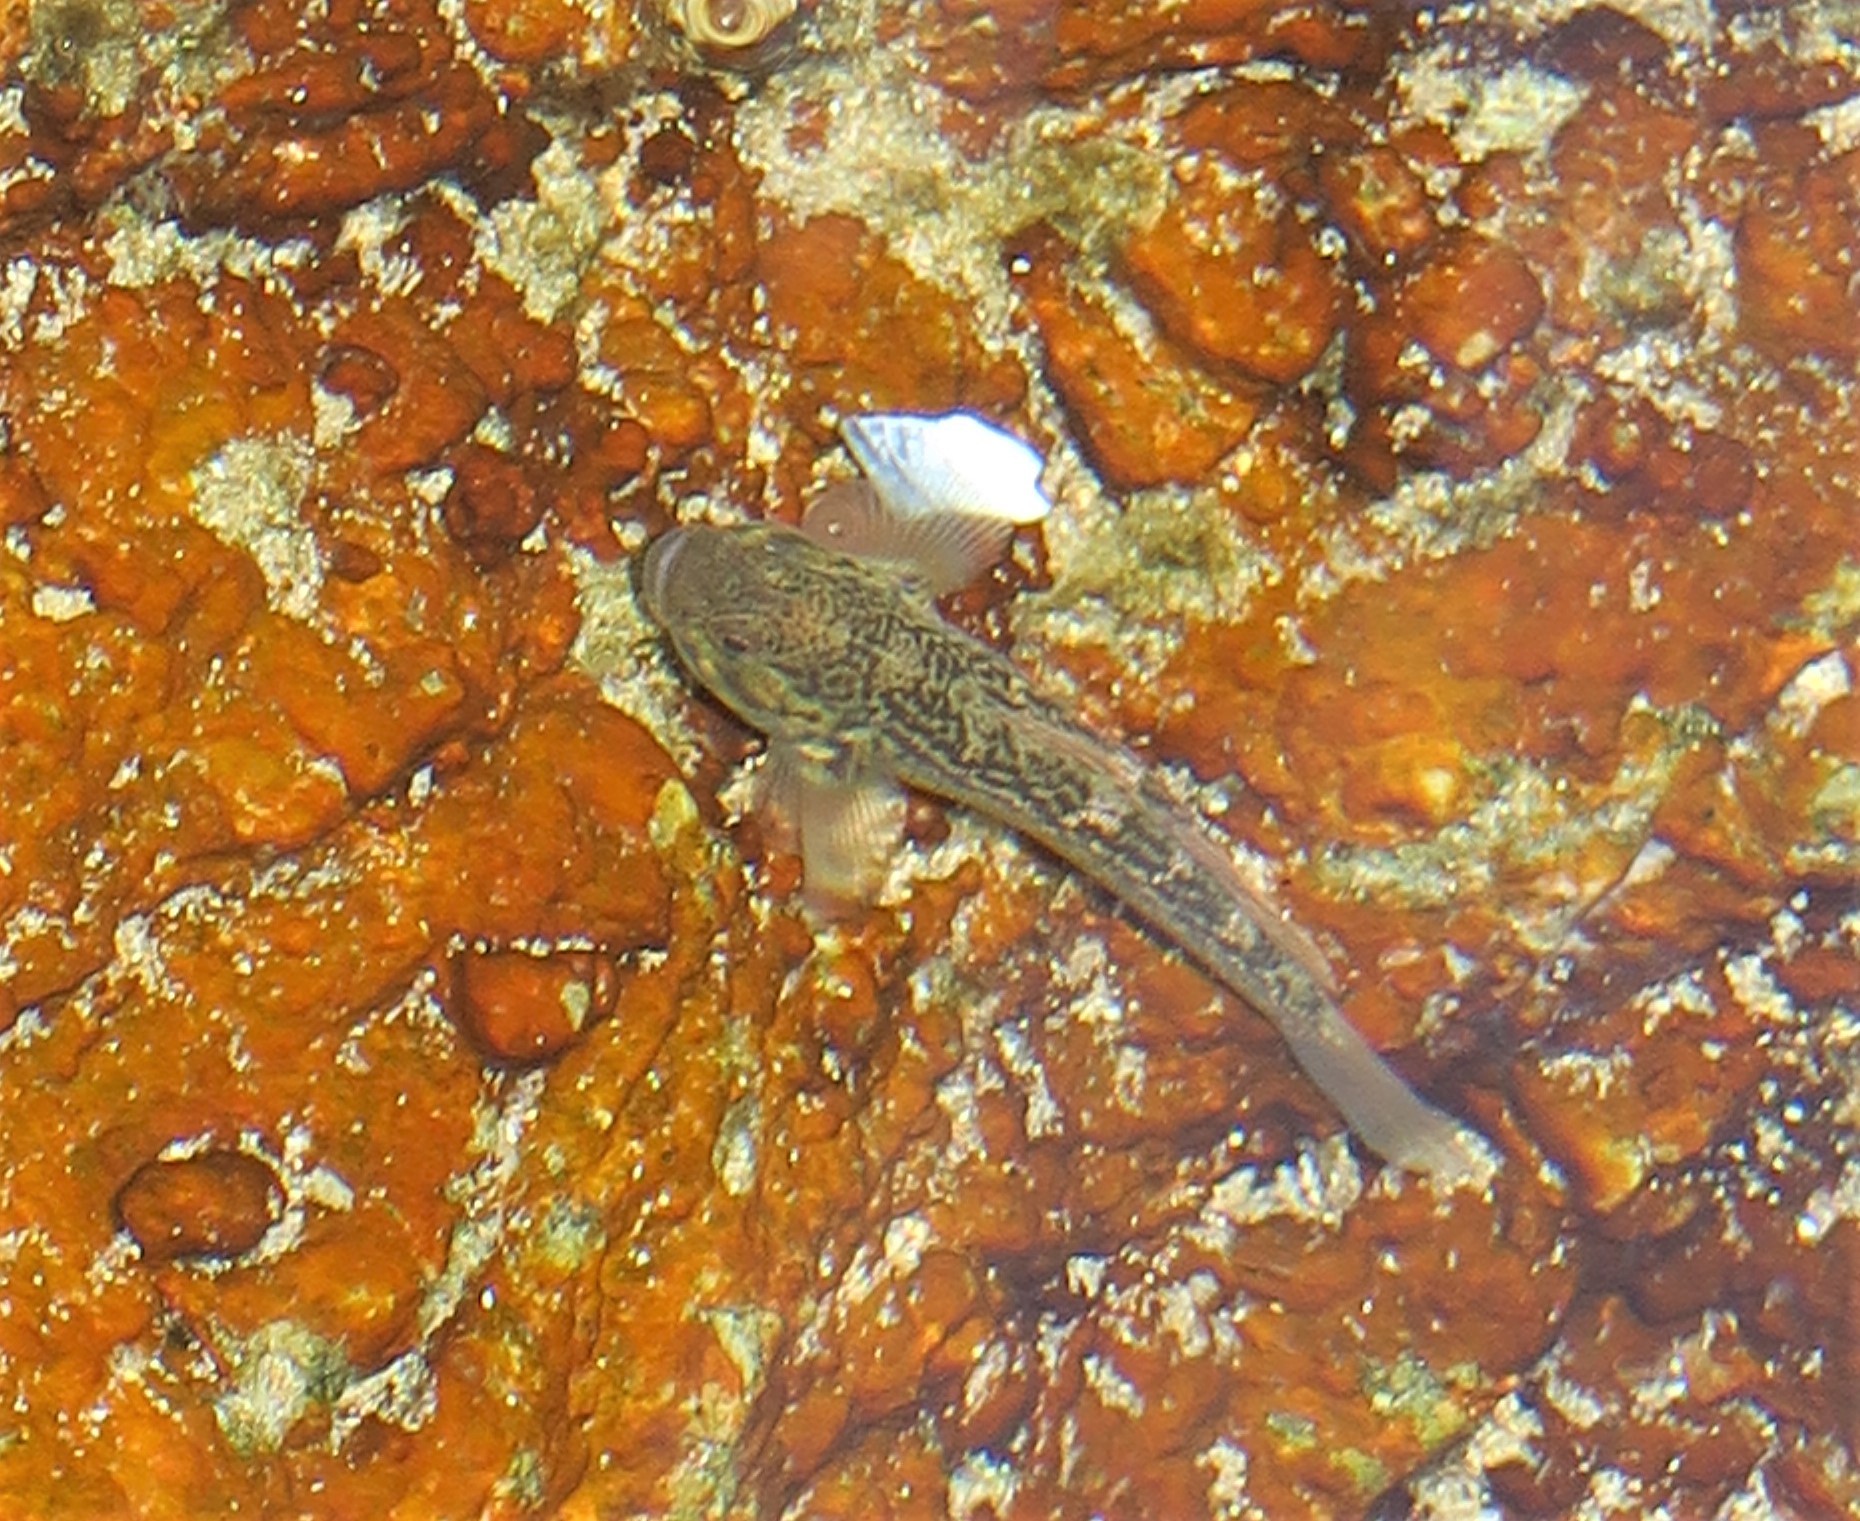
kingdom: Animalia
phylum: Chordata
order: Perciformes
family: Gobiidae
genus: Caffrogobius
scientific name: Caffrogobius caffer
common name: Banded goby
